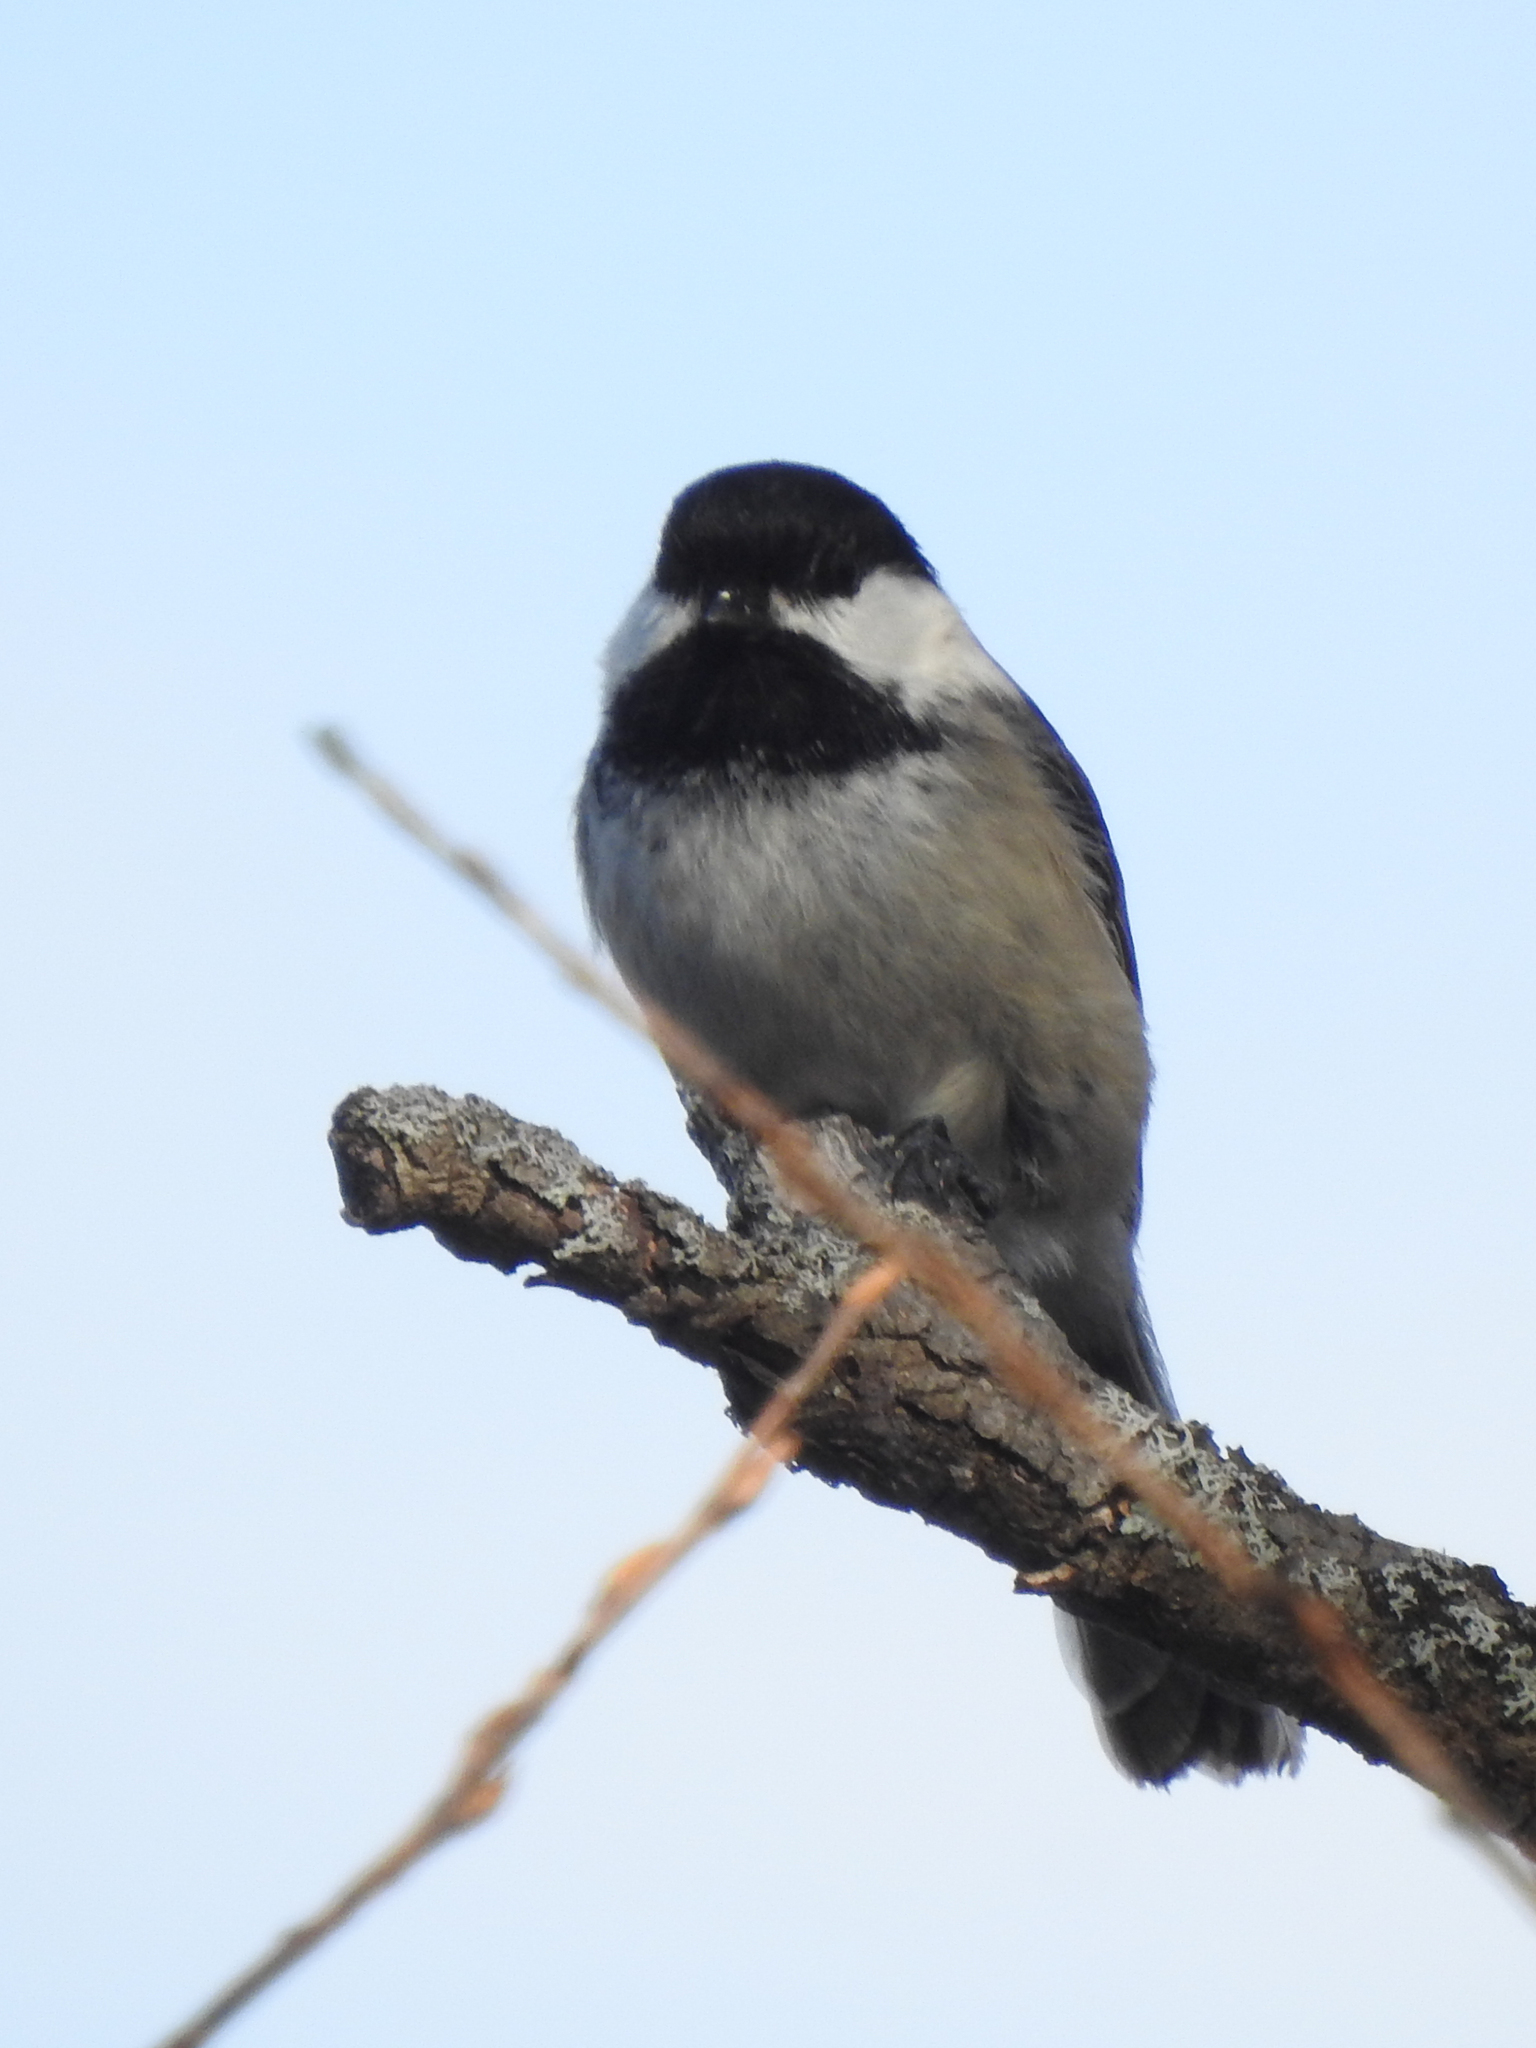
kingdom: Animalia
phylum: Chordata
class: Aves
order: Passeriformes
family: Paridae
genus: Poecile
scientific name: Poecile atricapillus
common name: Black-capped chickadee
